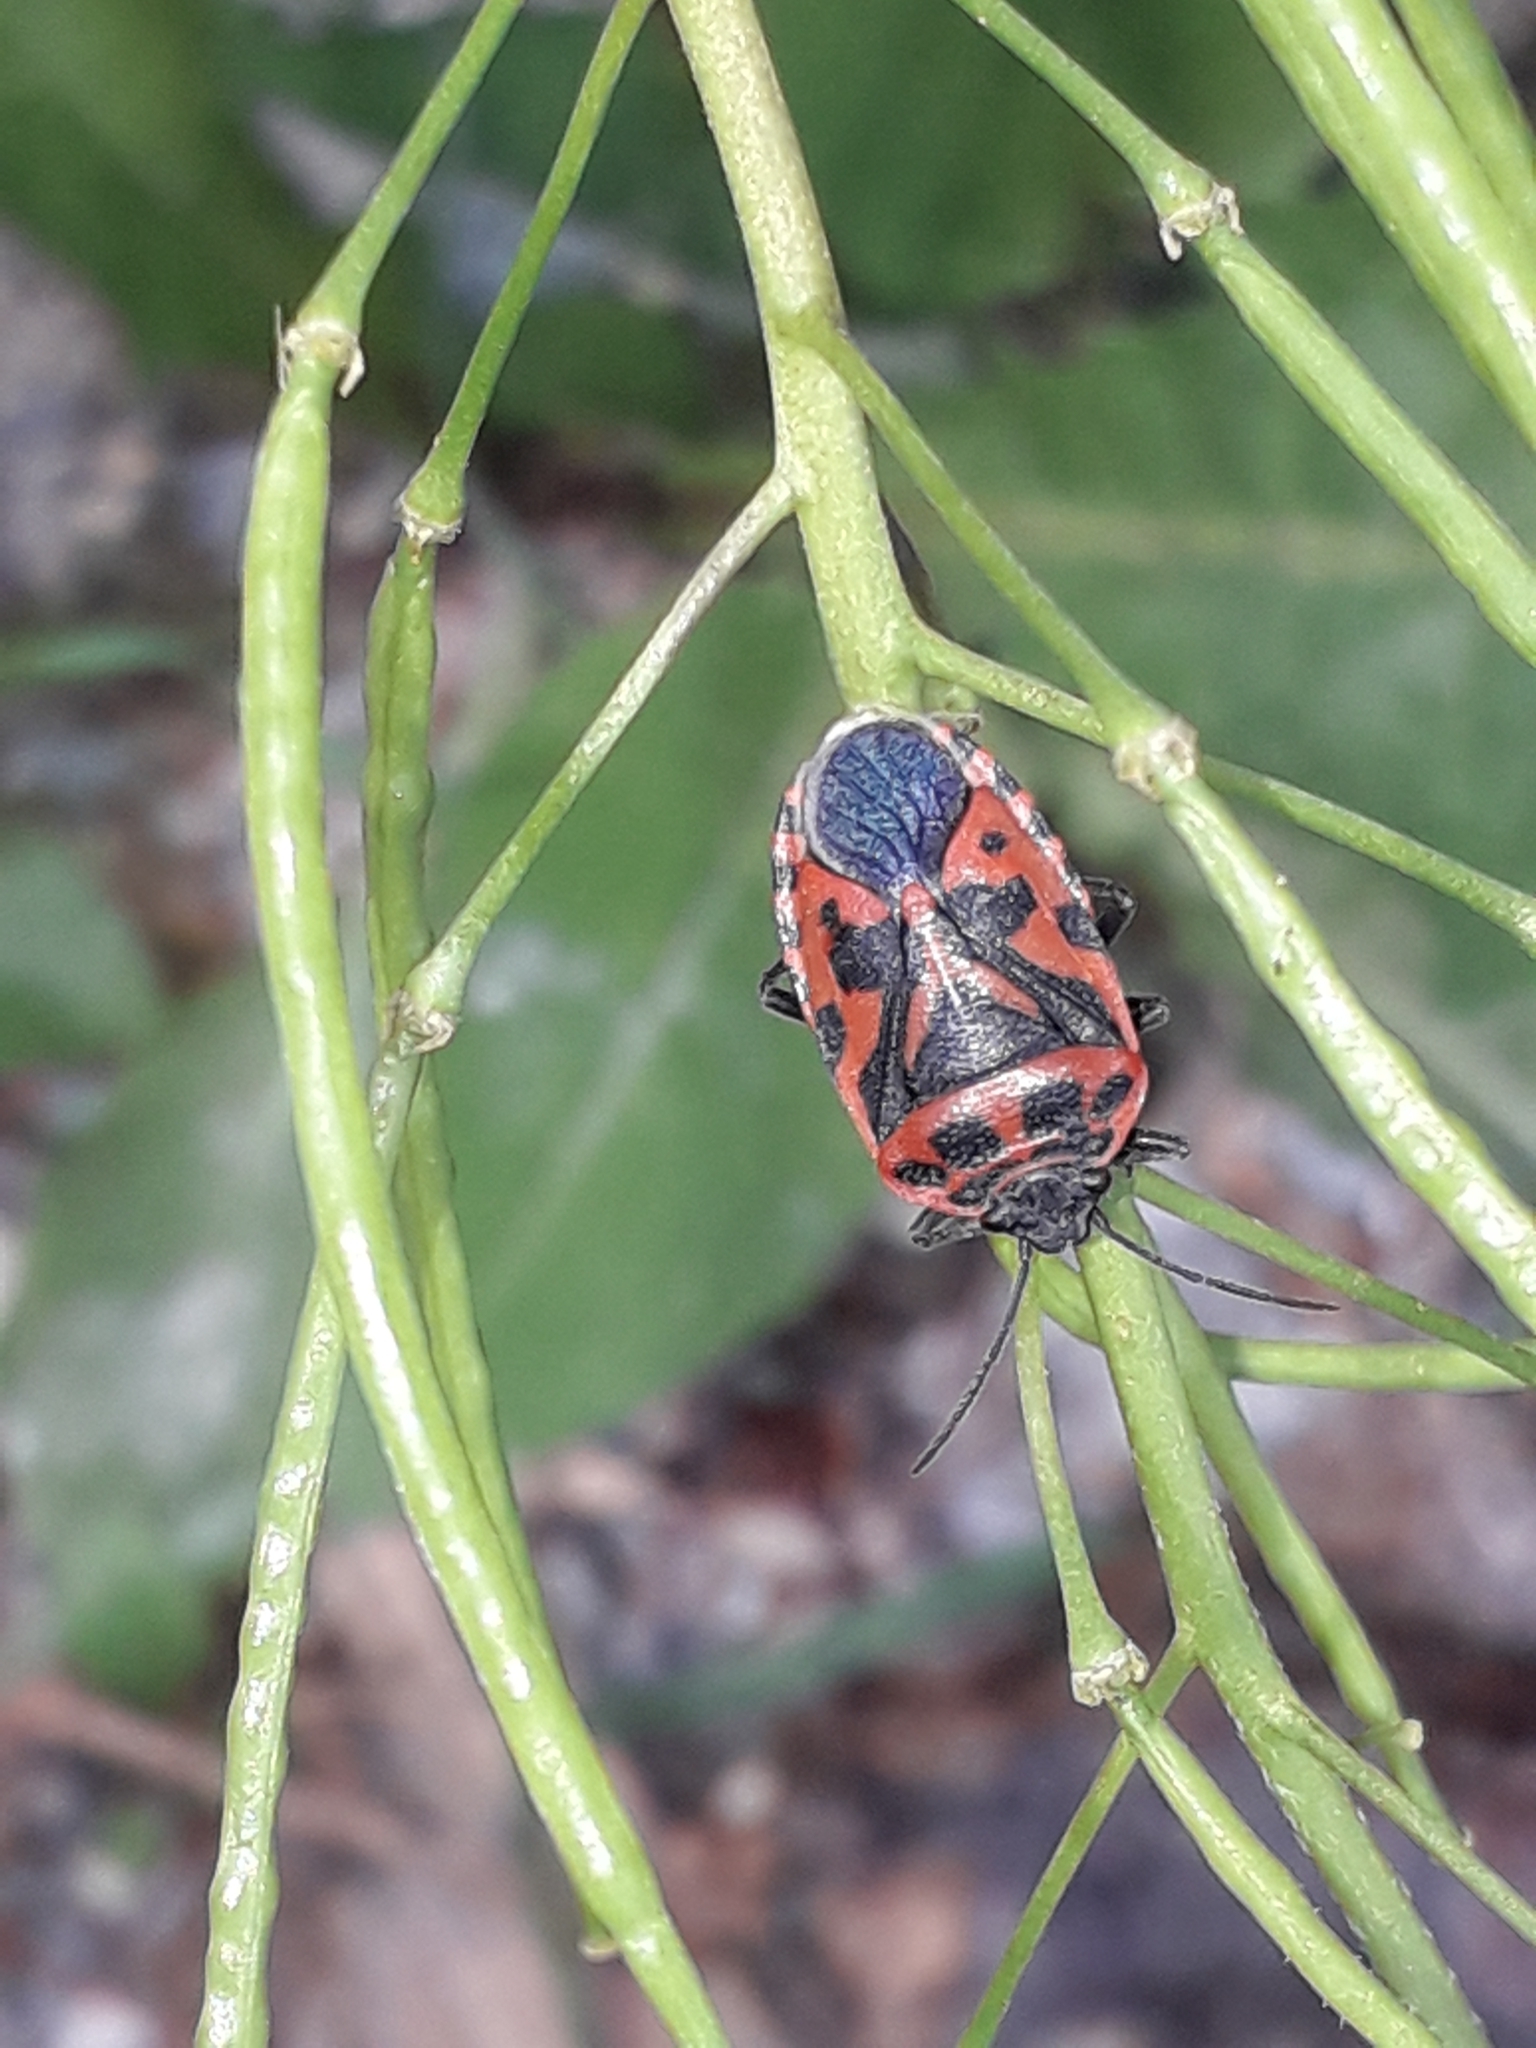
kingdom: Animalia
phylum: Arthropoda
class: Insecta
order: Hemiptera
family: Pentatomidae
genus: Eurydema
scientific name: Eurydema ventralis
